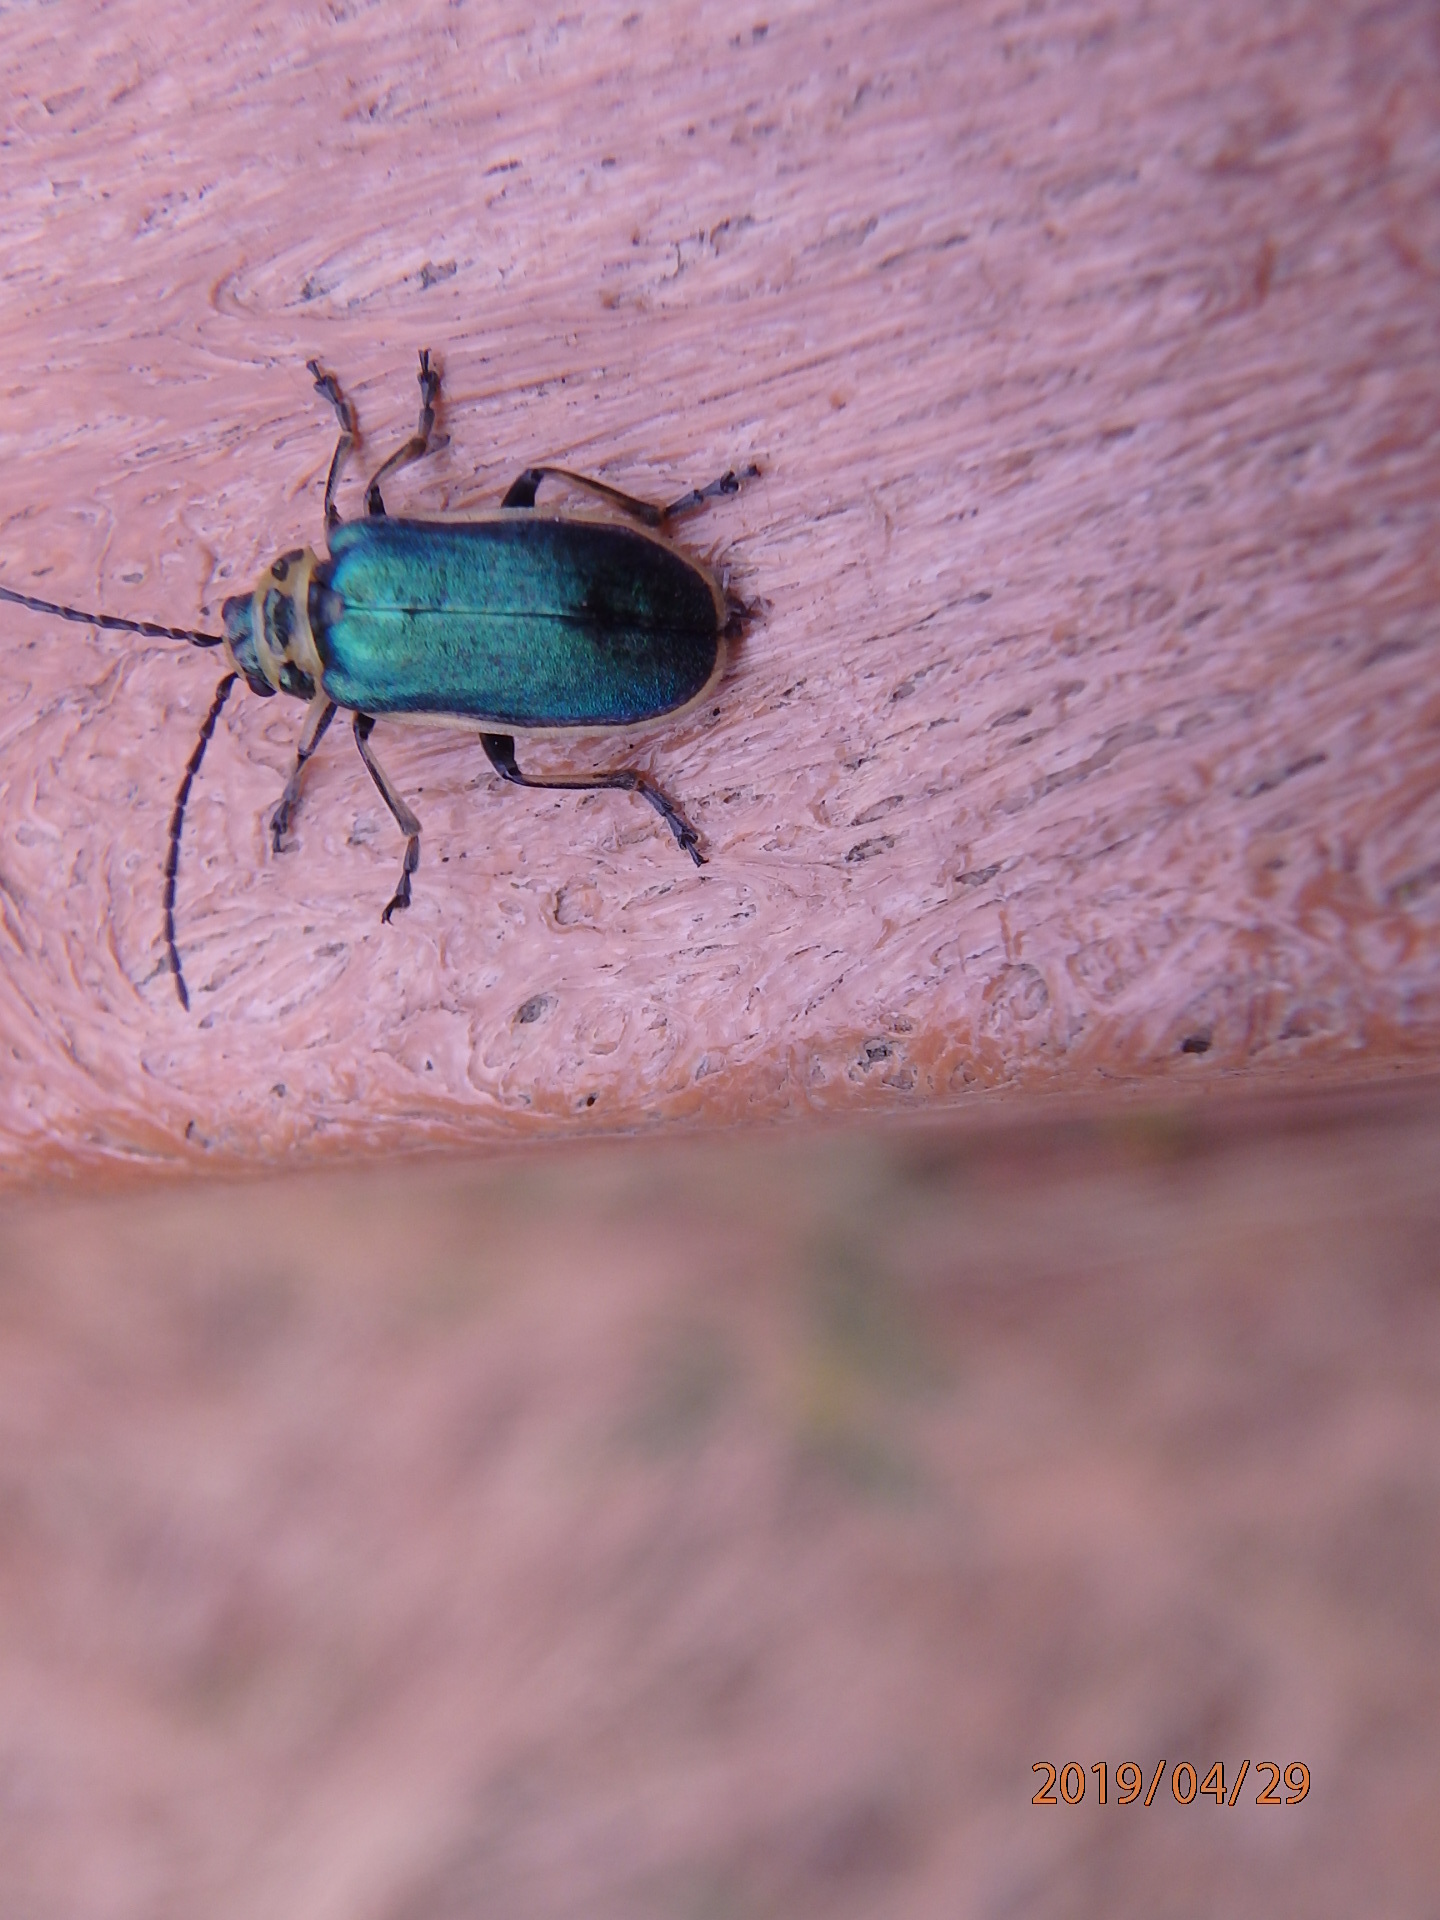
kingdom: Animalia
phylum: Arthropoda
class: Insecta
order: Coleoptera
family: Chrysomelidae
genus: Trirhabda
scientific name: Trirhabda flavolimbata
